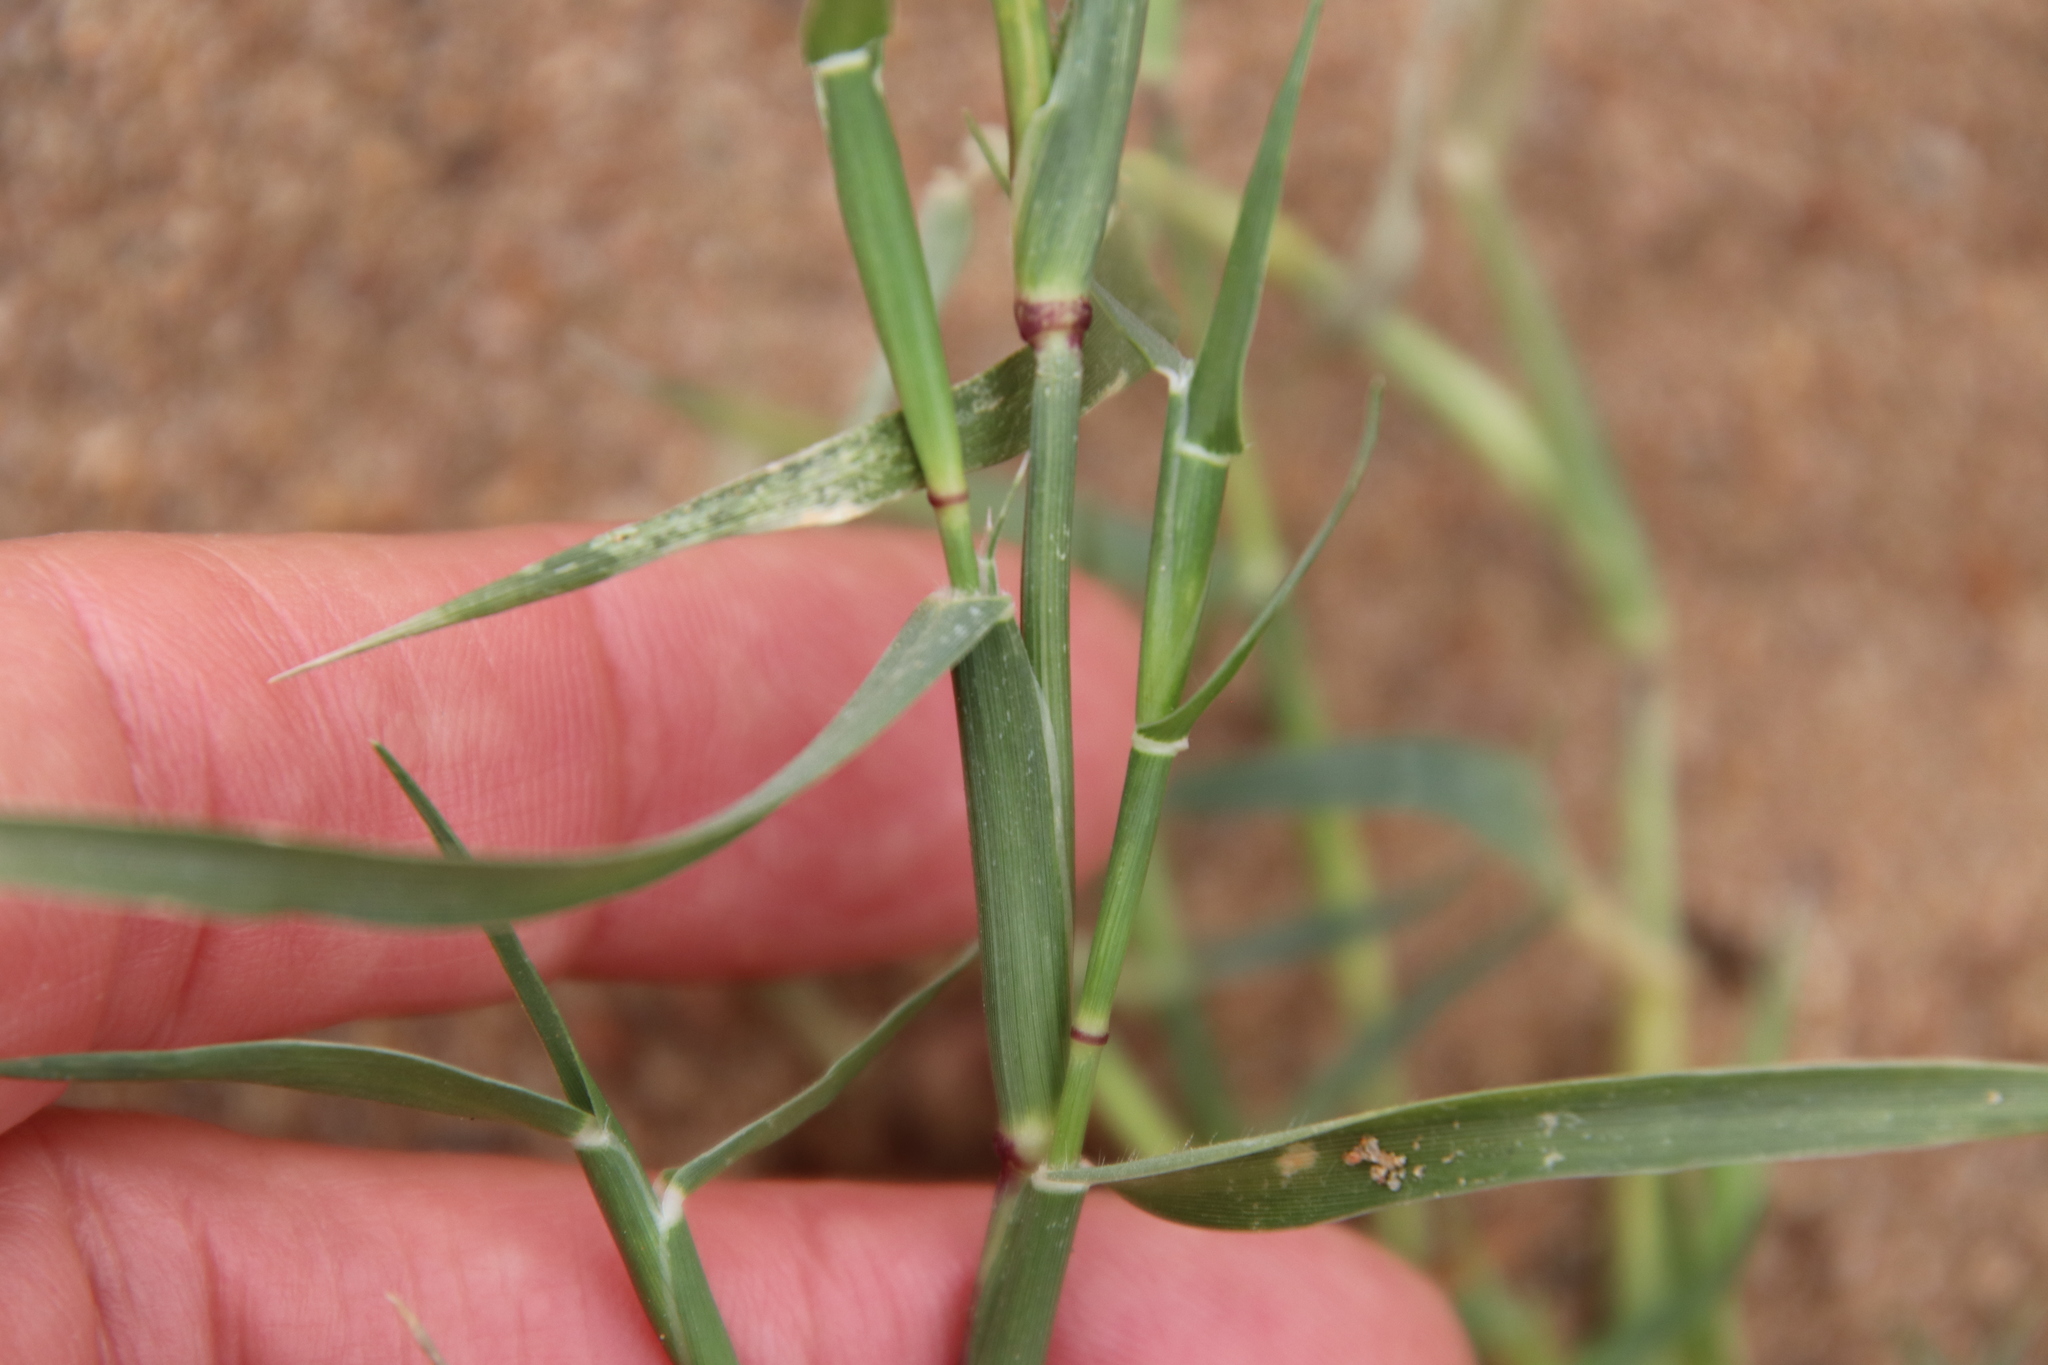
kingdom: Plantae
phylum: Tracheophyta
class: Liliopsida
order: Poales
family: Poaceae
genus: Sporobolus
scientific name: Sporobolus schoenoides
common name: Rush-like timothy
